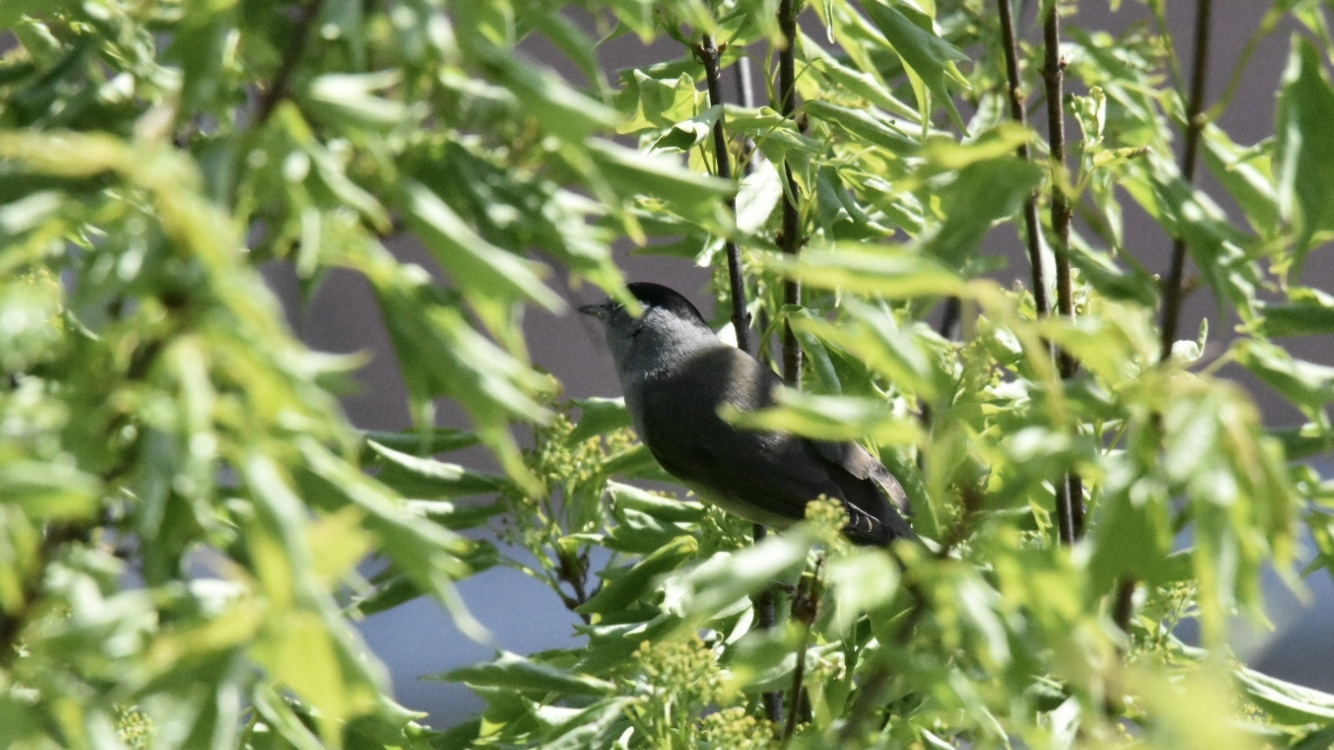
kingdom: Animalia
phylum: Chordata
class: Aves
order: Passeriformes
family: Sylviidae
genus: Sylvia
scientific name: Sylvia atricapilla
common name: Eurasian blackcap
